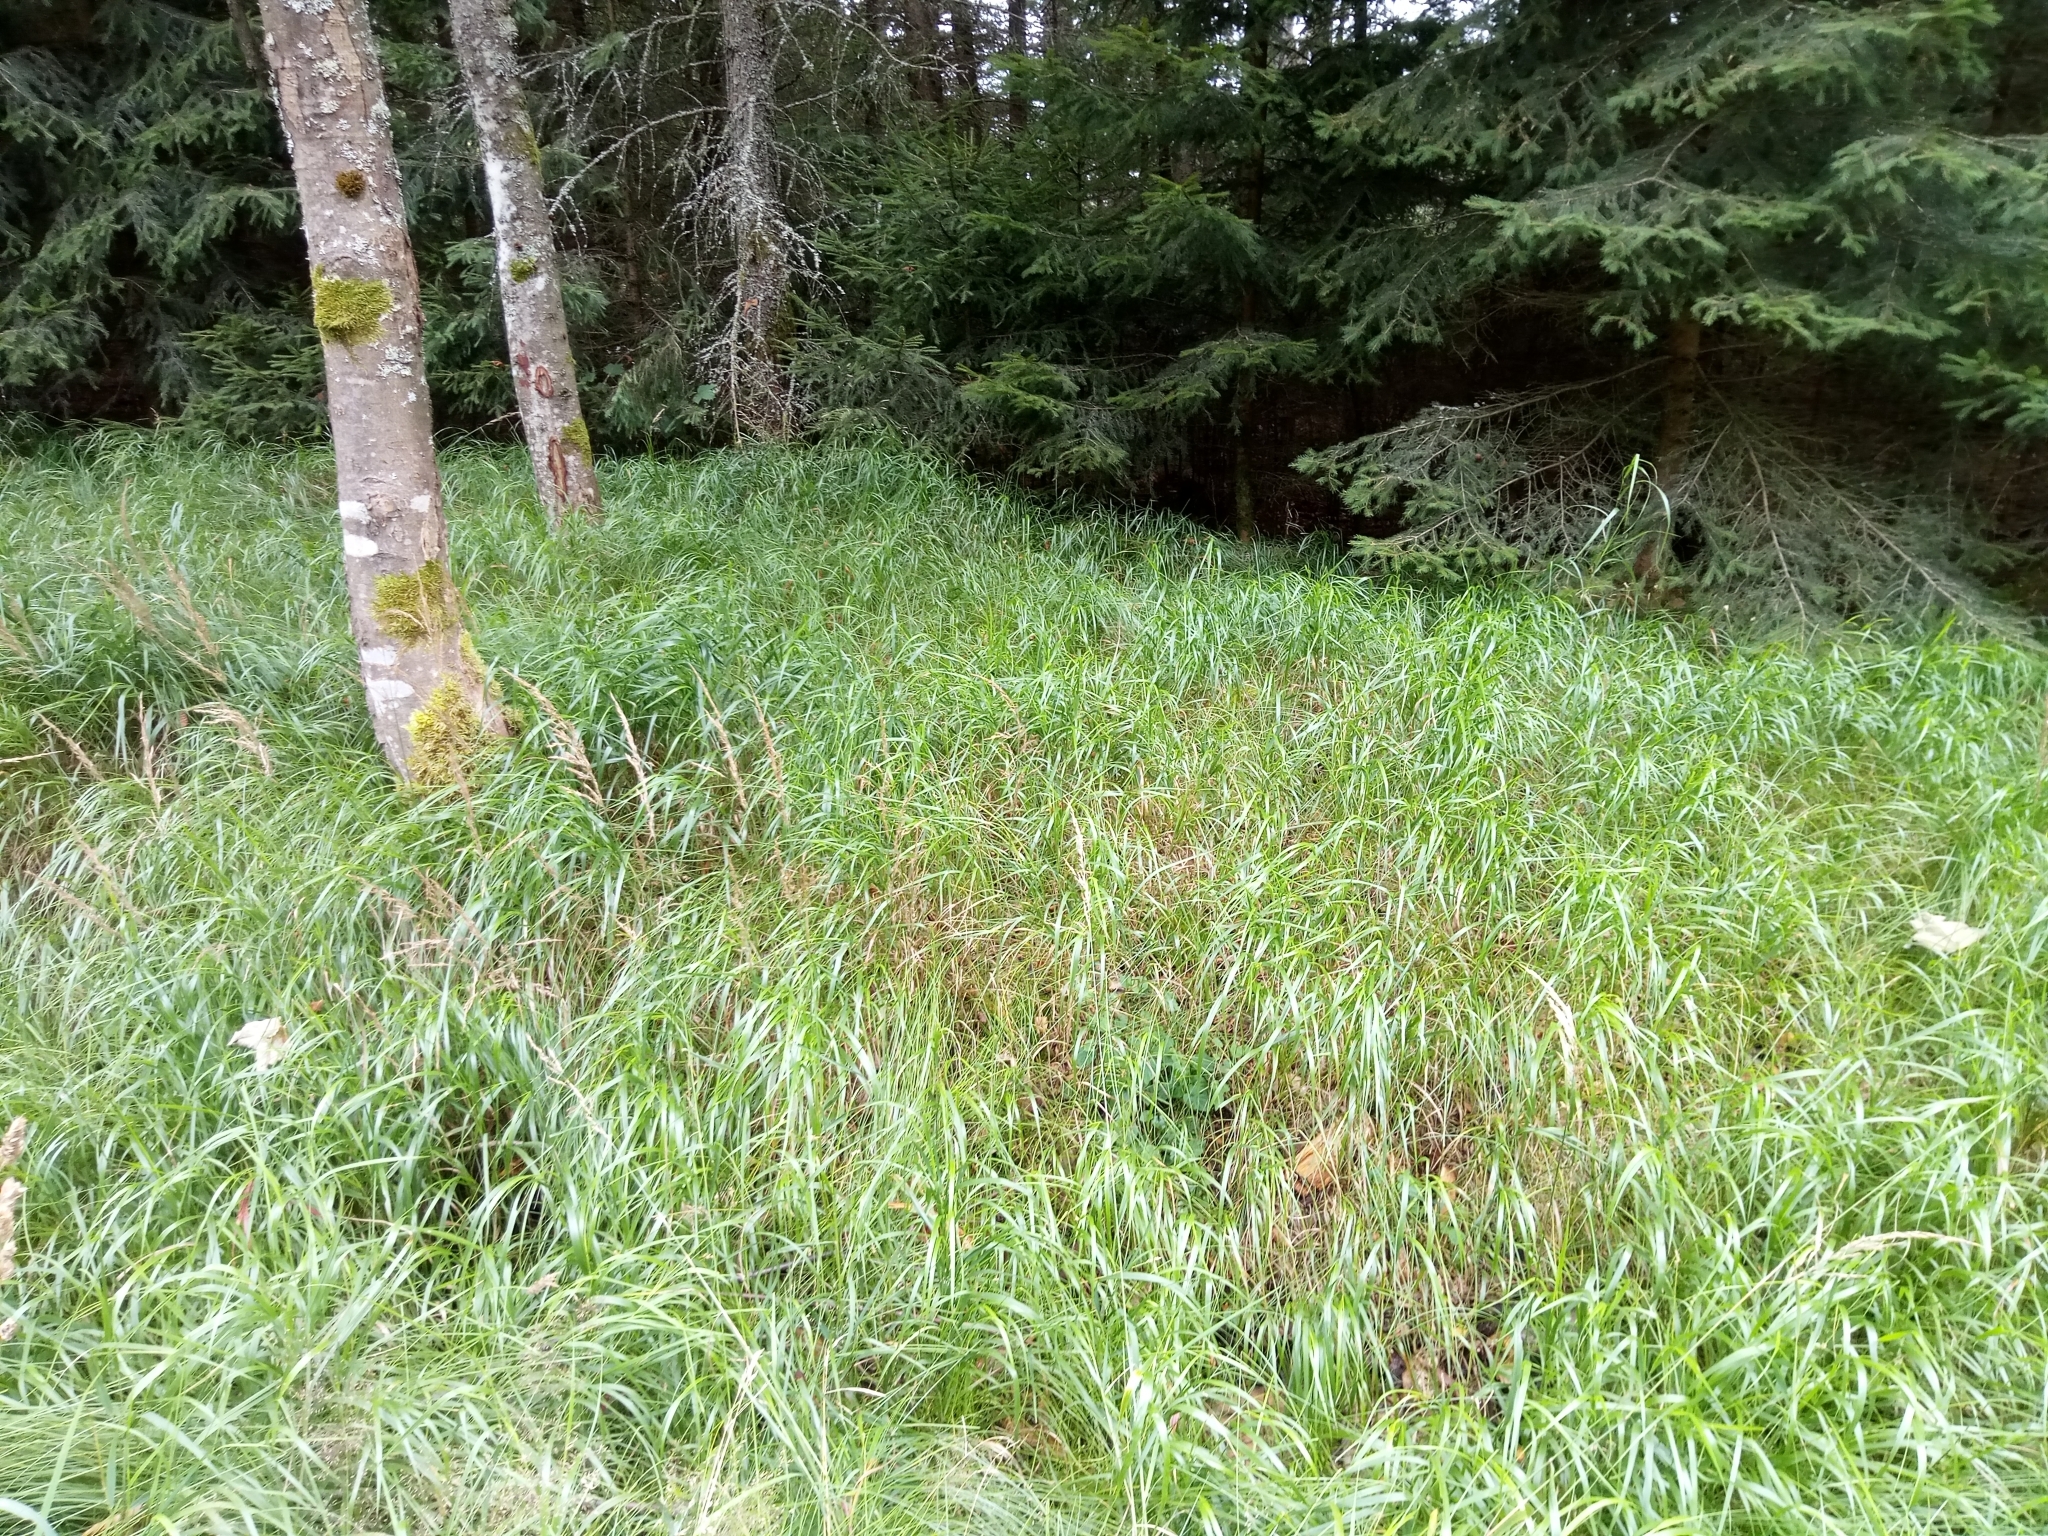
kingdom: Plantae
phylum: Tracheophyta
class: Liliopsida
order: Poales
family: Poaceae
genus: Calamagrostis
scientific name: Calamagrostis villosa
